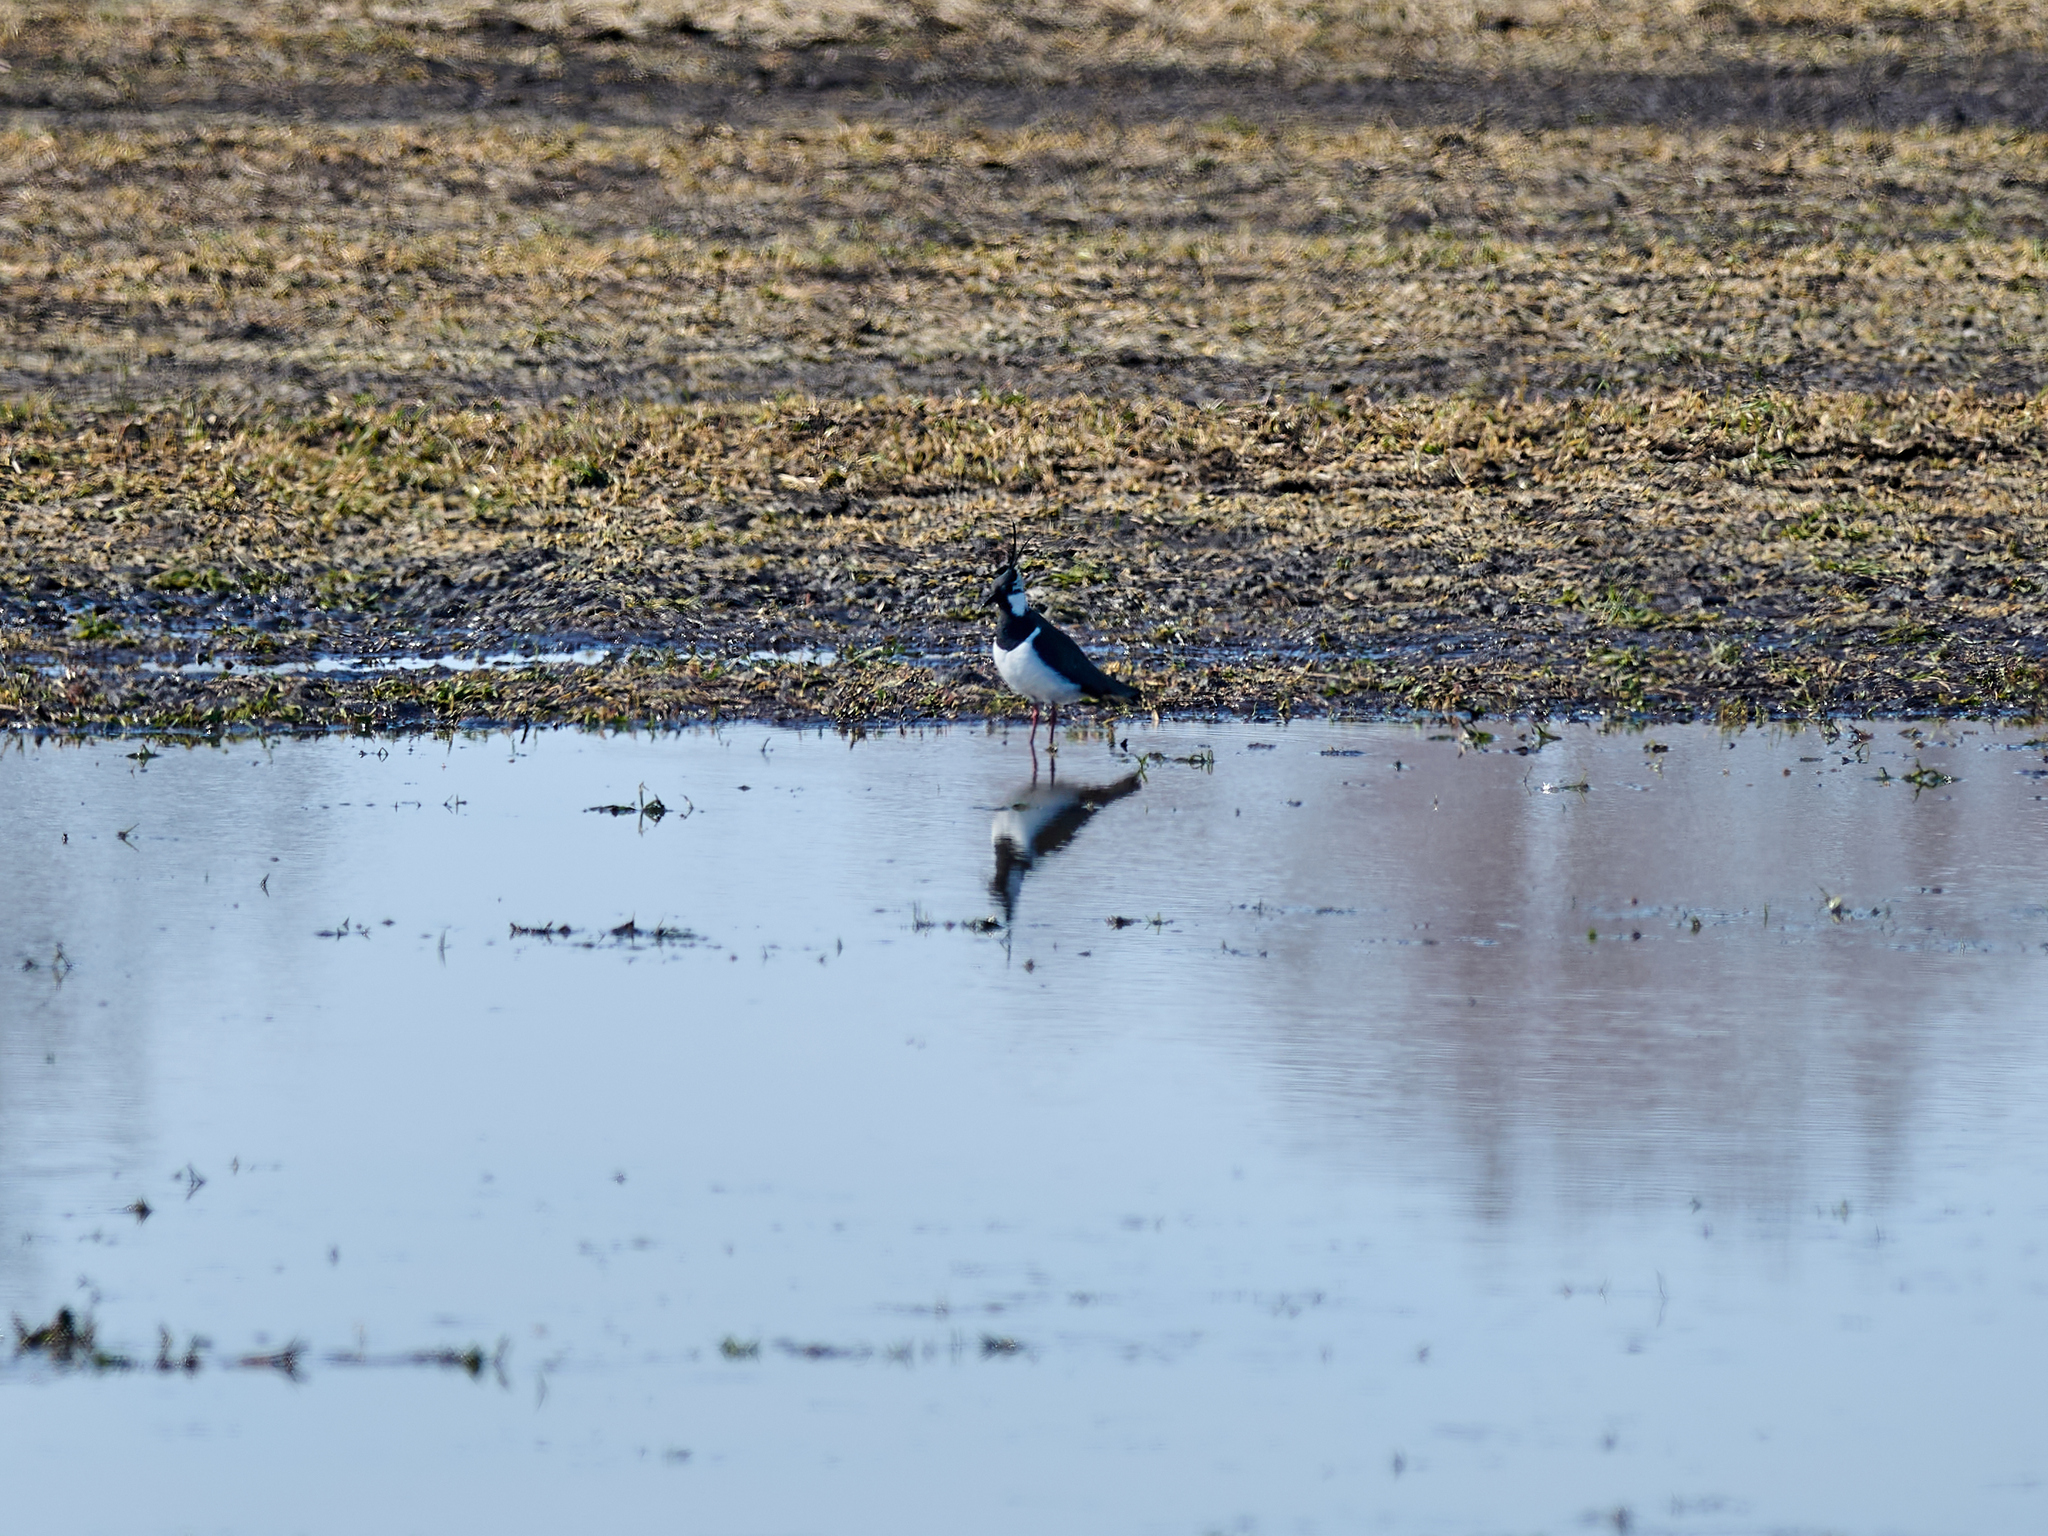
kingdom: Animalia
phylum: Chordata
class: Aves
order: Charadriiformes
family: Charadriidae
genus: Vanellus
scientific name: Vanellus vanellus
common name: Northern lapwing
